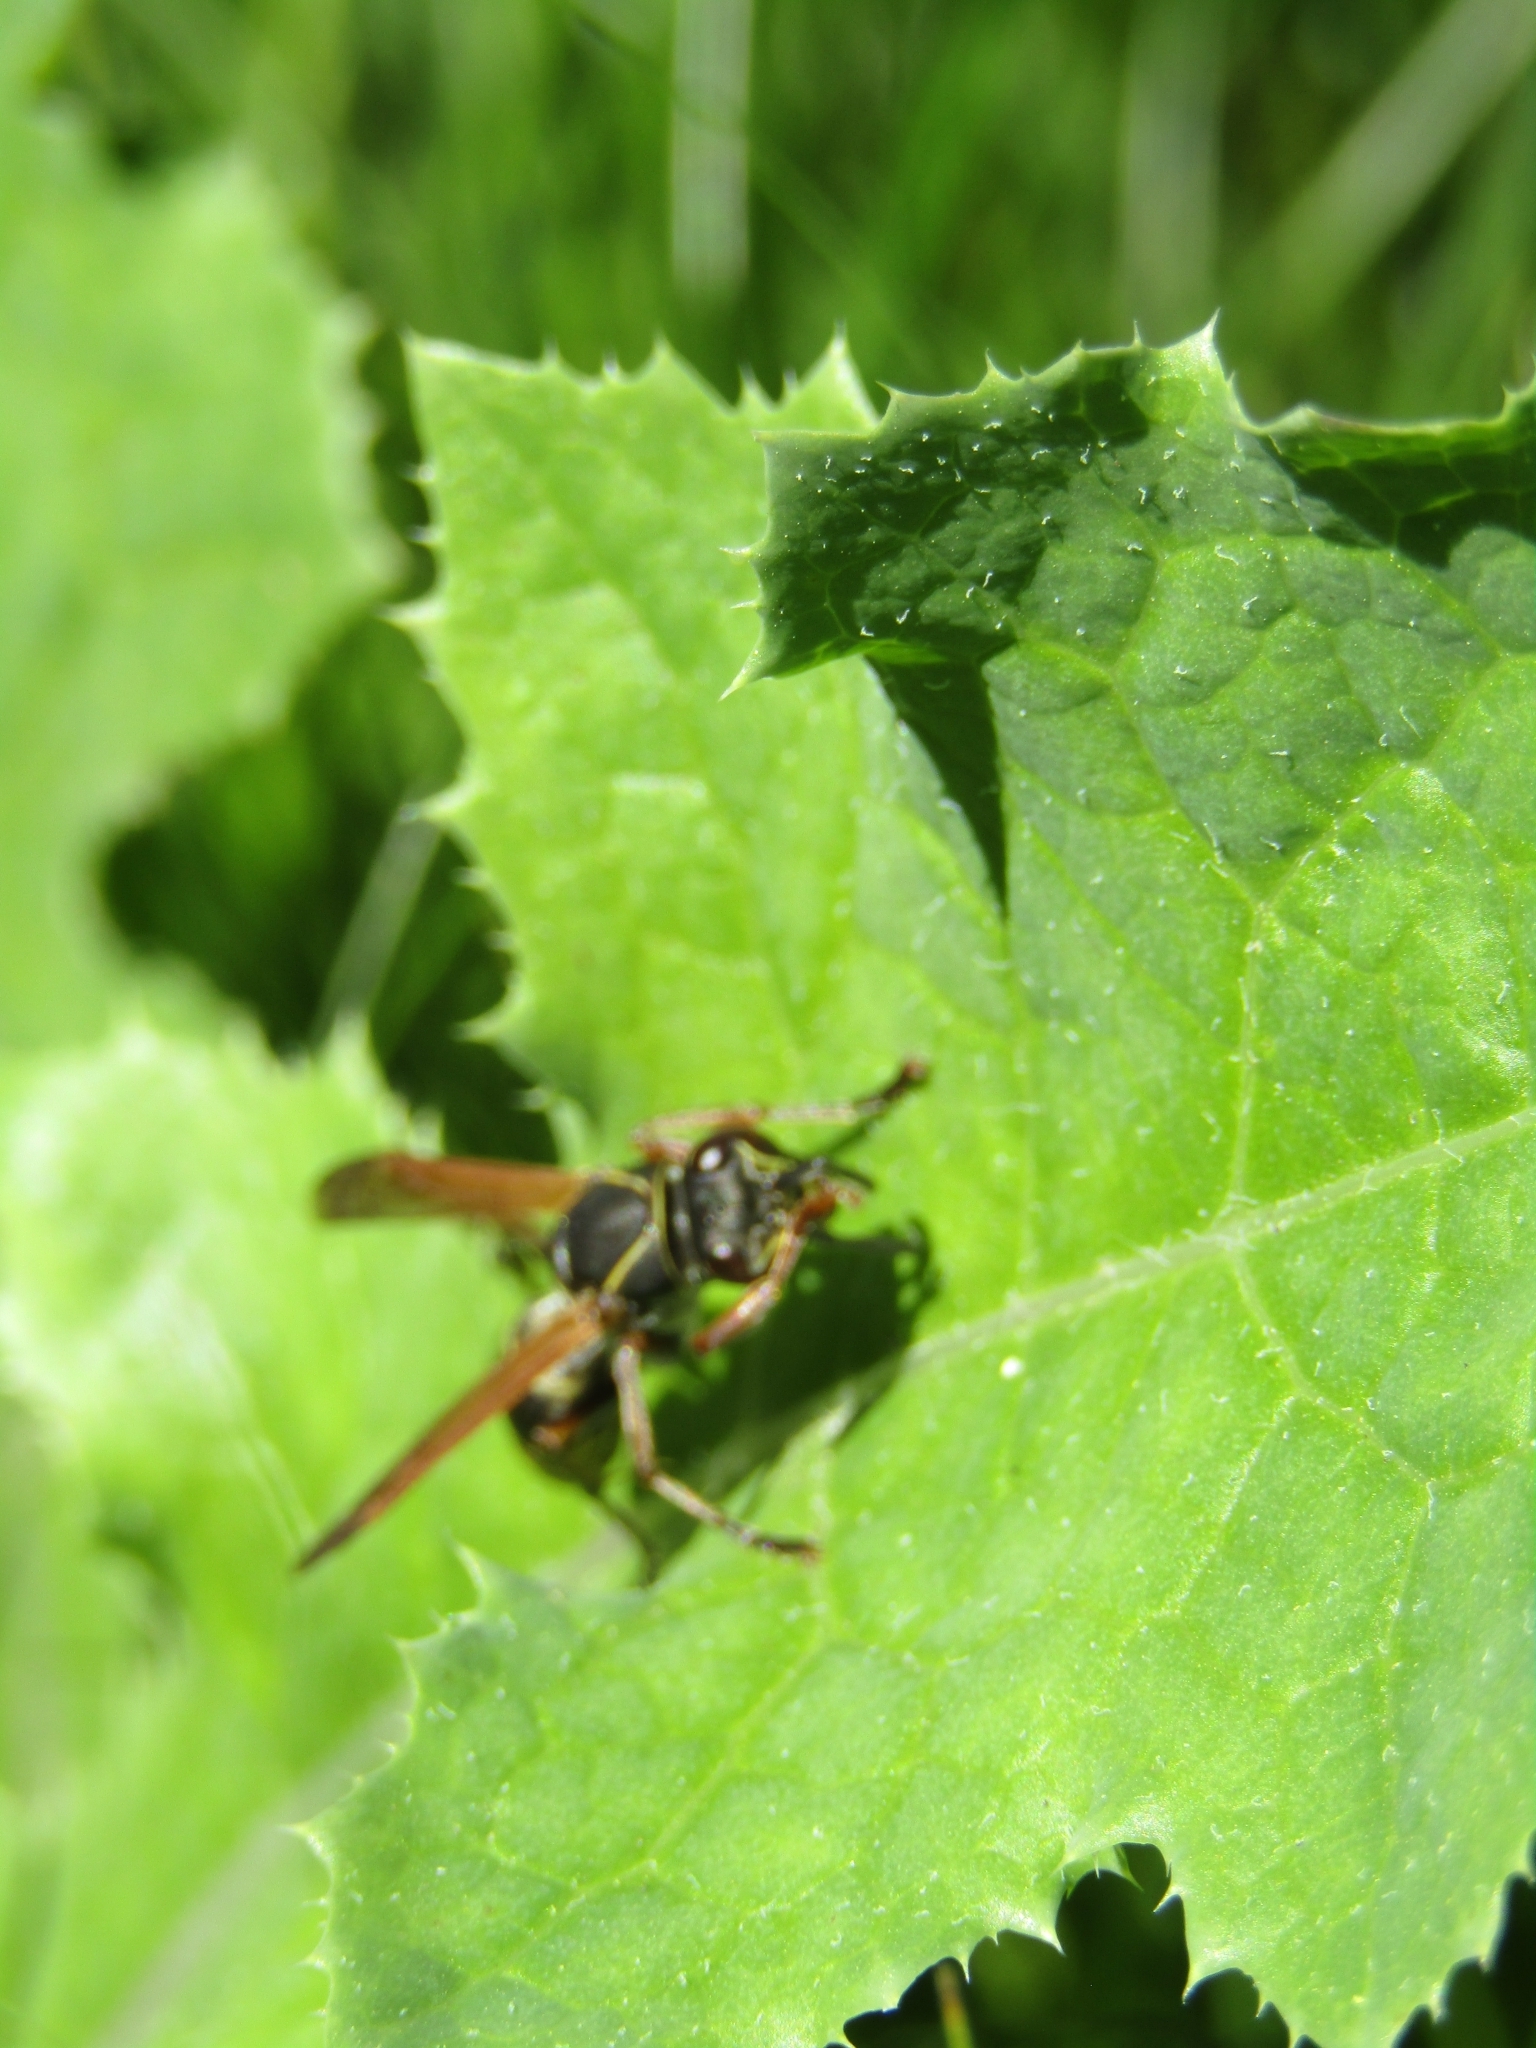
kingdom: Animalia
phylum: Arthropoda
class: Insecta
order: Hymenoptera
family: Eumenidae
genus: Polistes
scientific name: Polistes cinerascens
